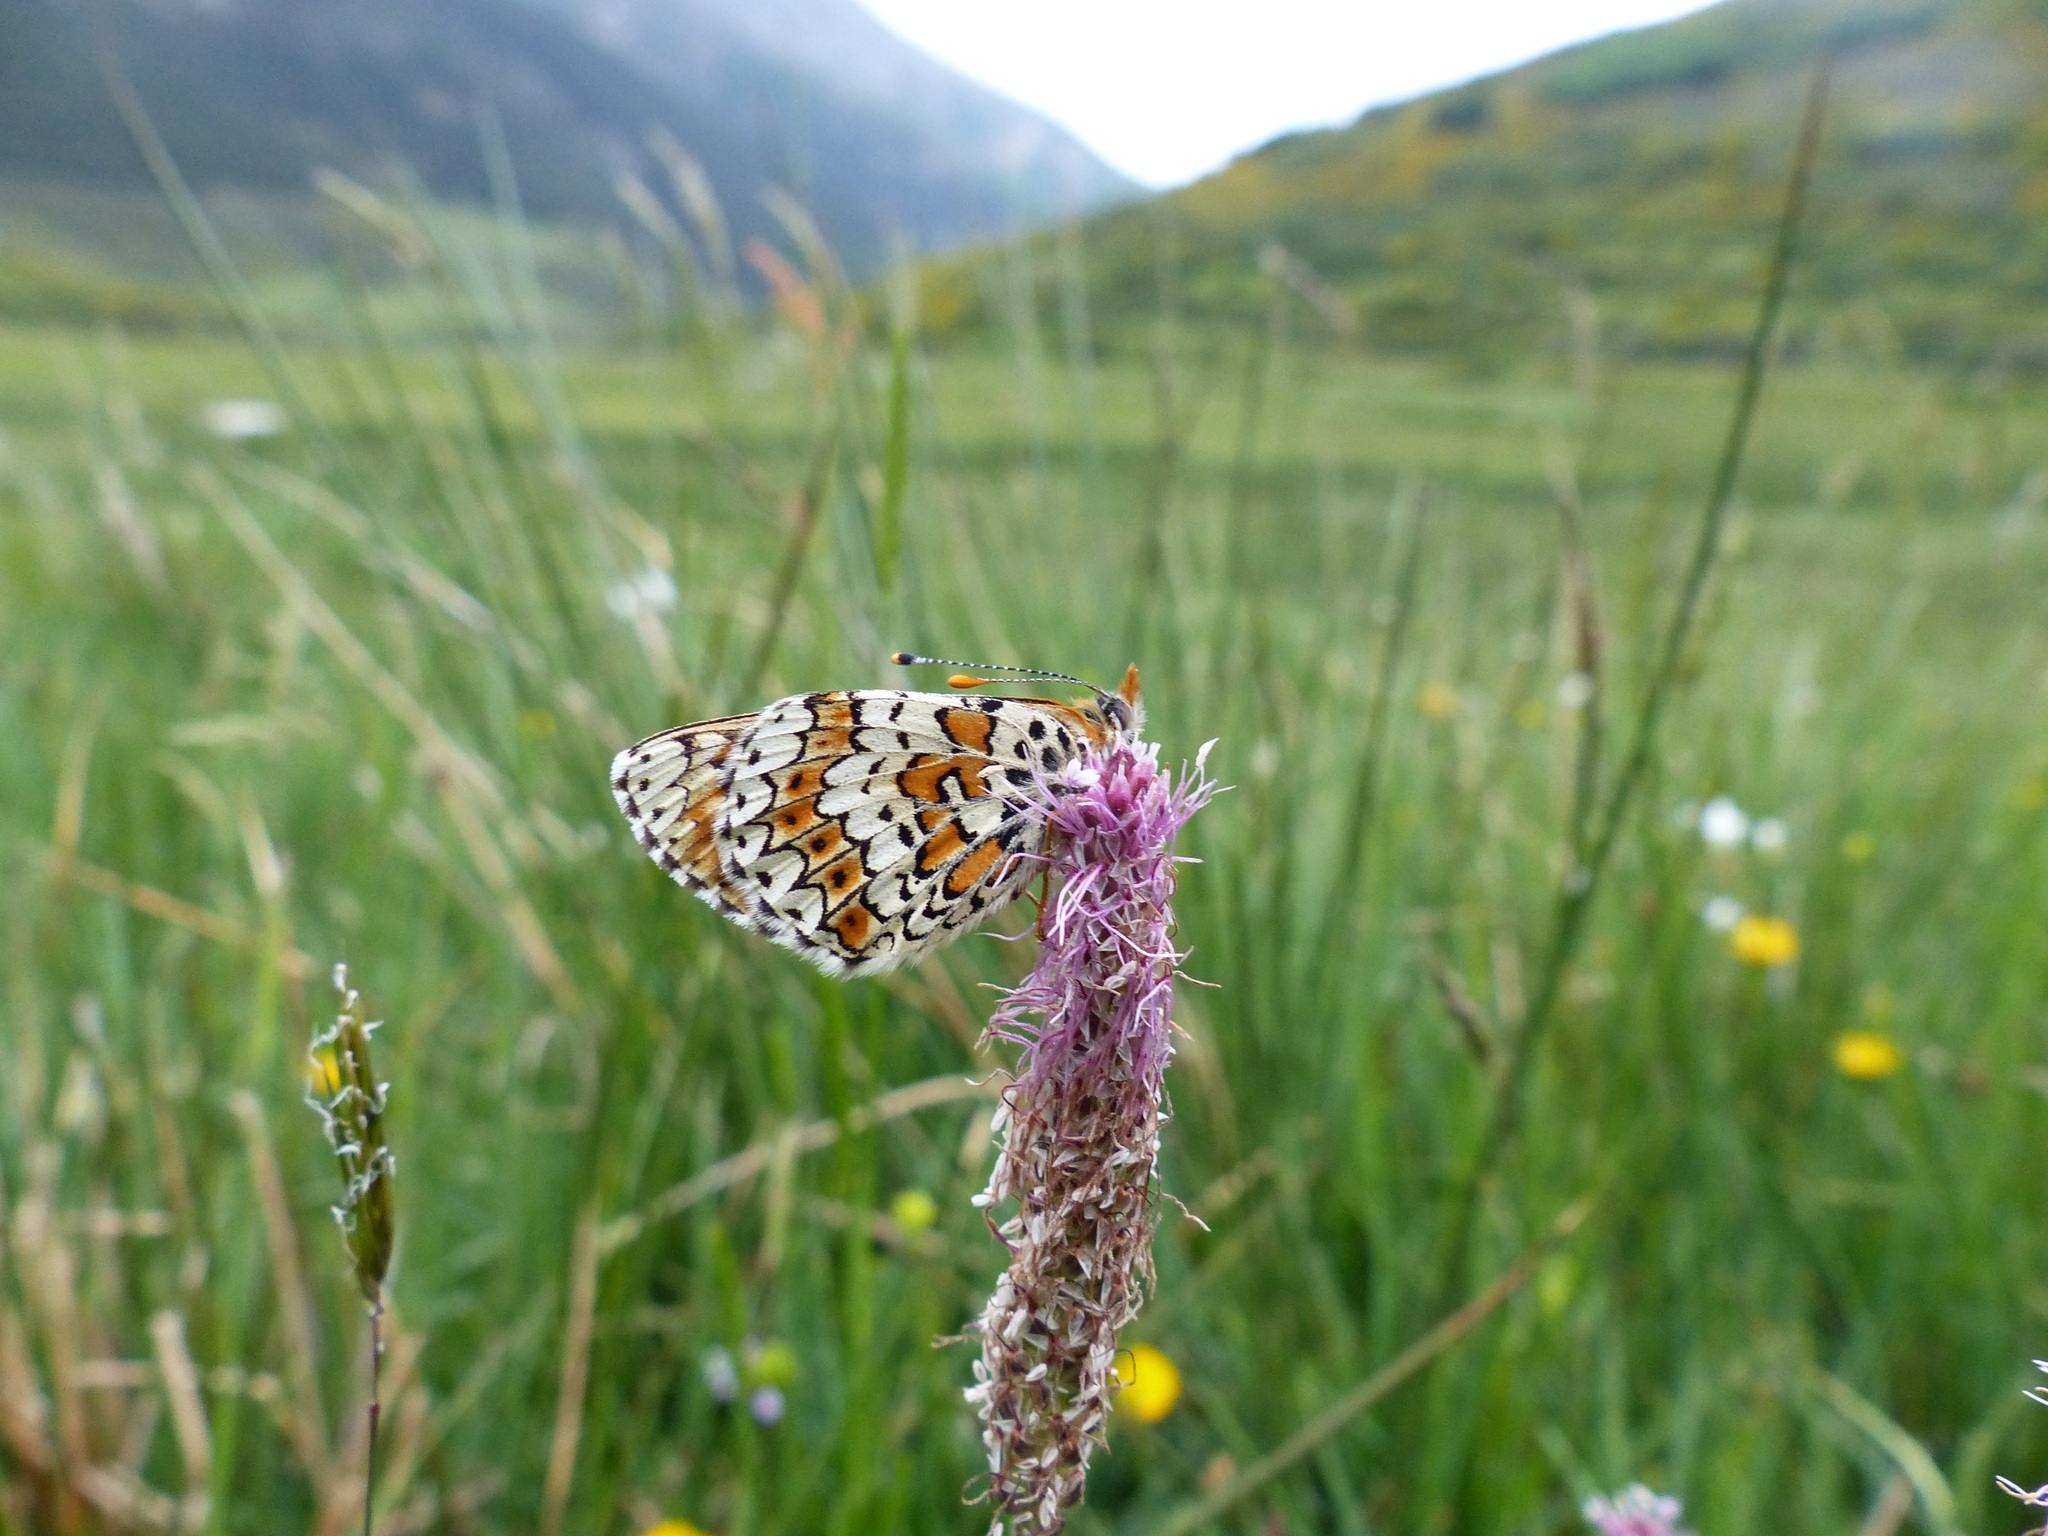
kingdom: Animalia
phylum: Arthropoda
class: Insecta
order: Lepidoptera
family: Nymphalidae
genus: Melitaea
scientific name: Melitaea cinxia
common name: Glanville fritillary
